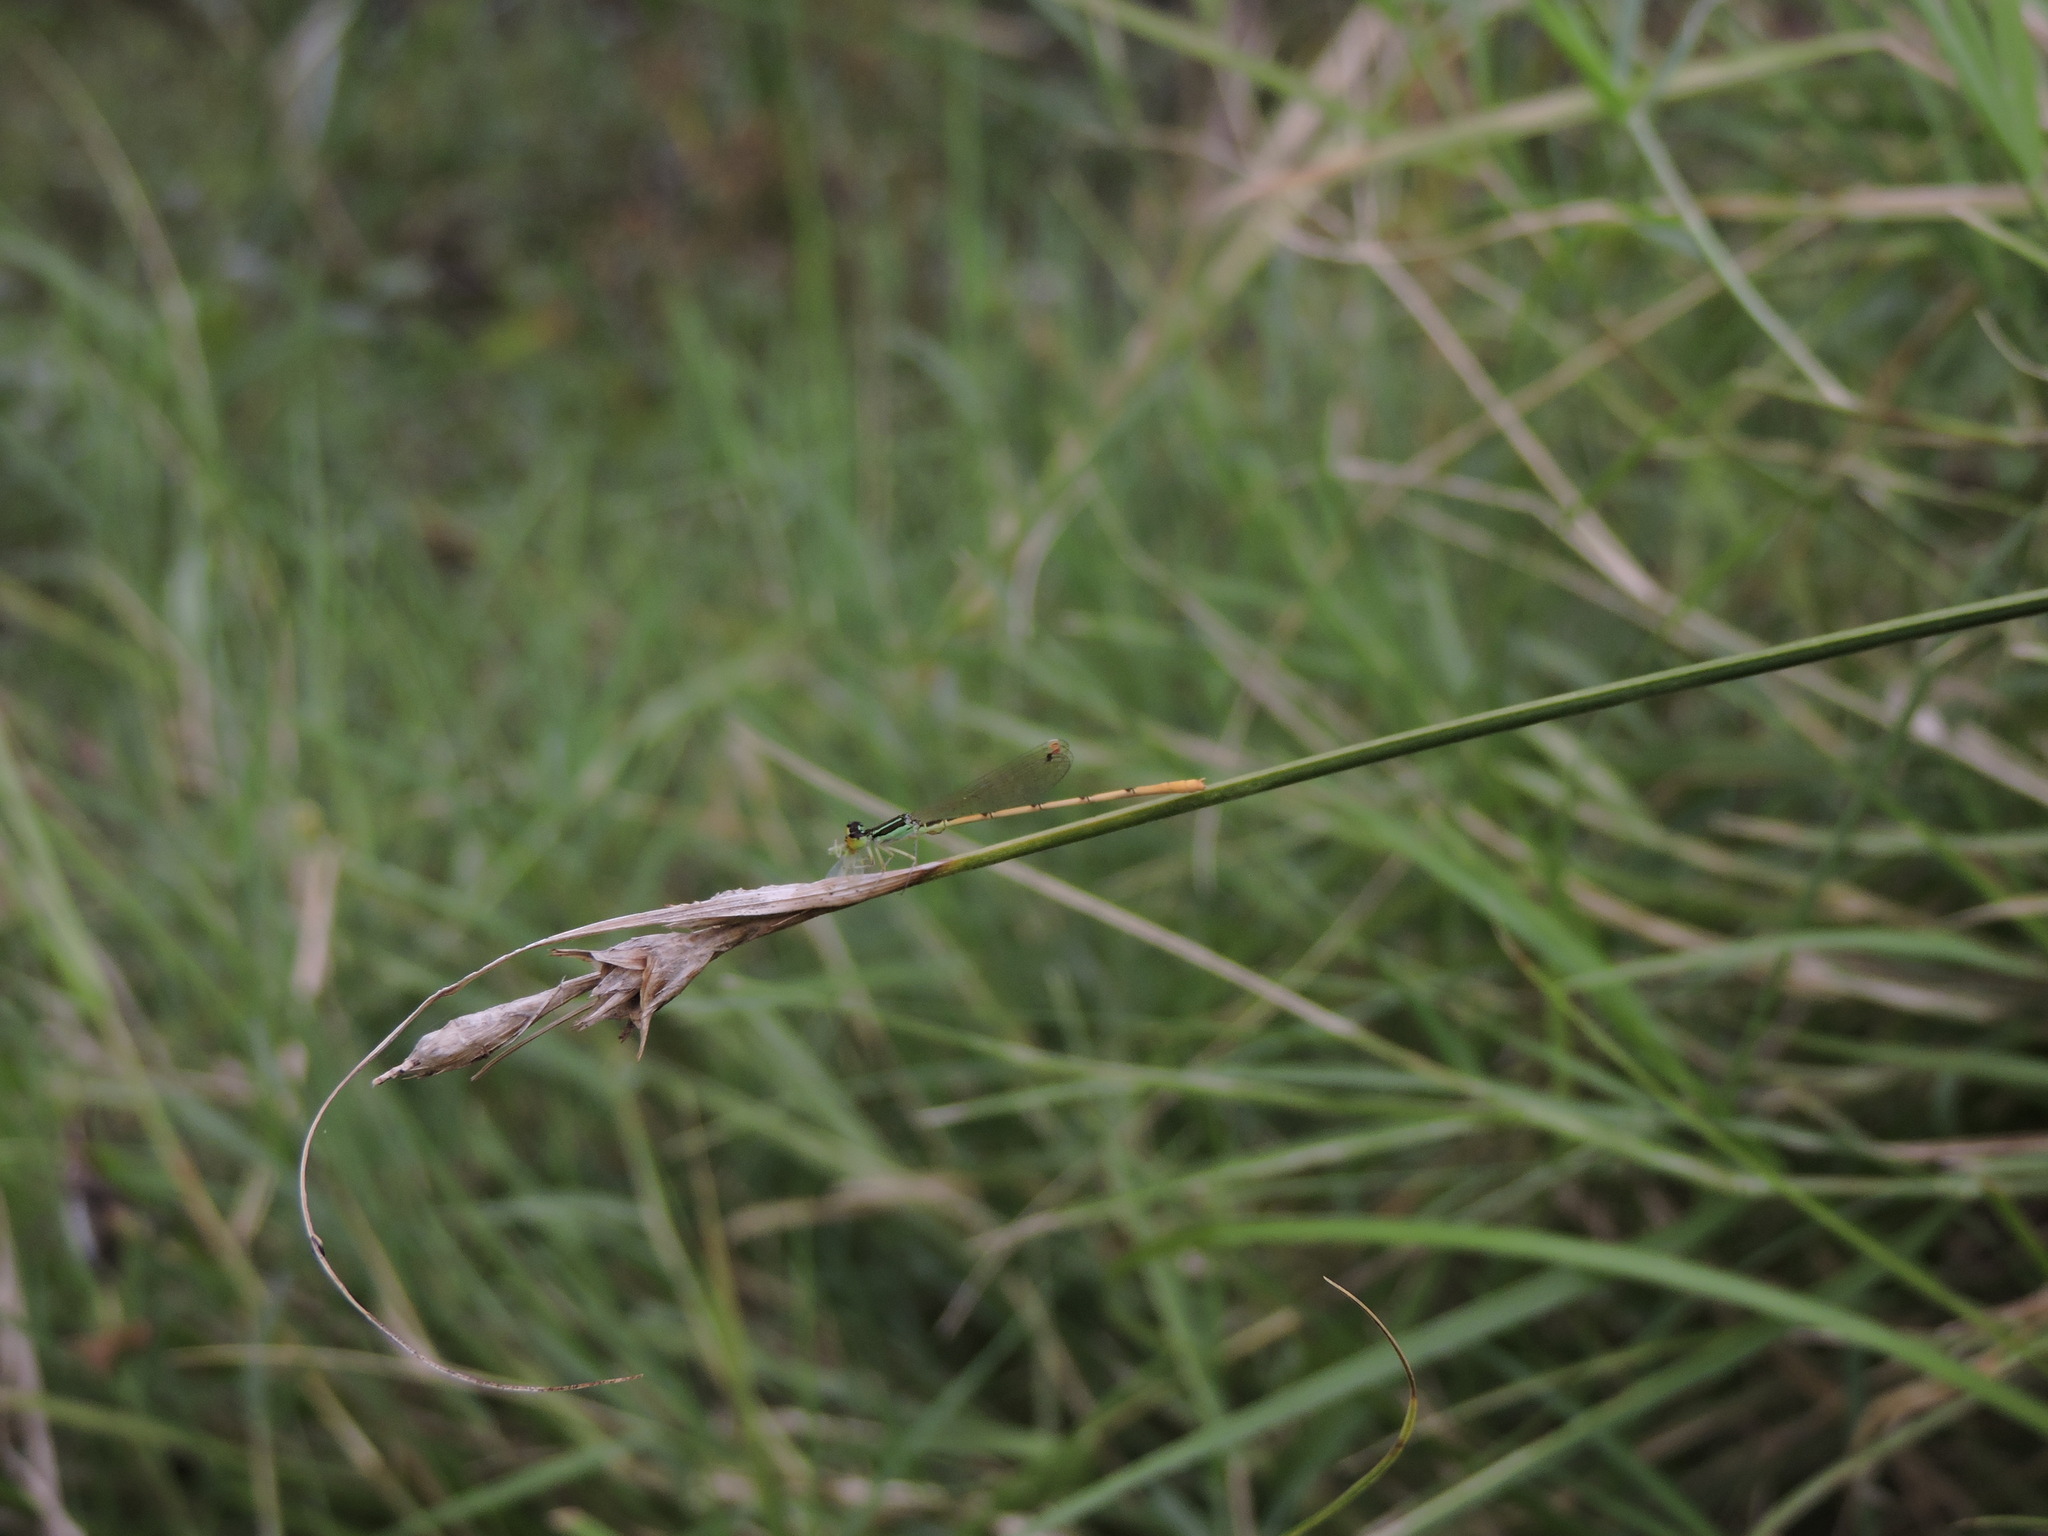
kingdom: Animalia
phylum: Arthropoda
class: Insecta
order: Odonata
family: Coenagrionidae
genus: Ischnura
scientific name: Ischnura hastata
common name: Citrine forktail
